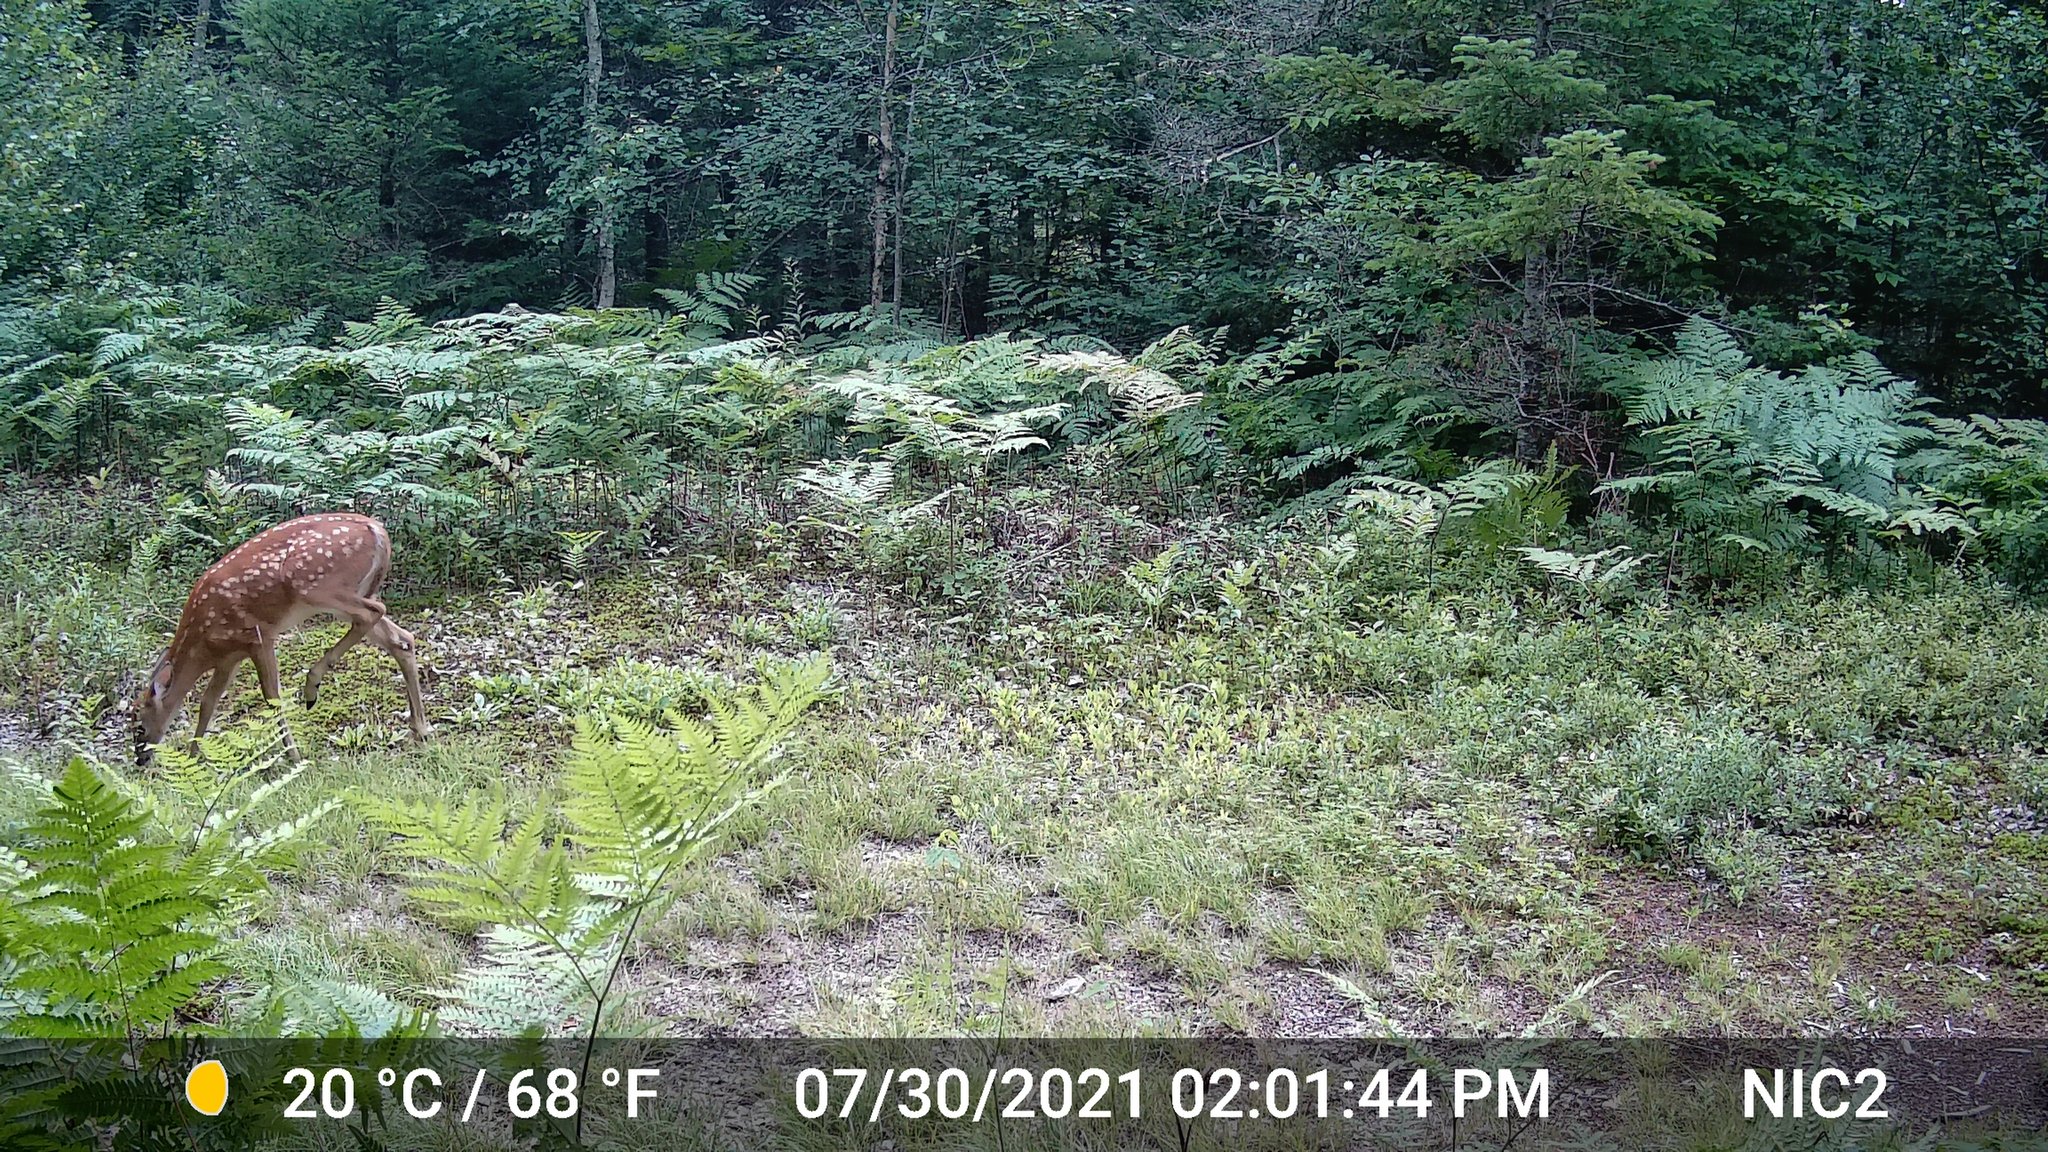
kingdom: Animalia
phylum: Chordata
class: Mammalia
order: Artiodactyla
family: Cervidae
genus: Odocoileus
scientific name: Odocoileus virginianus
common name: White-tailed deer
